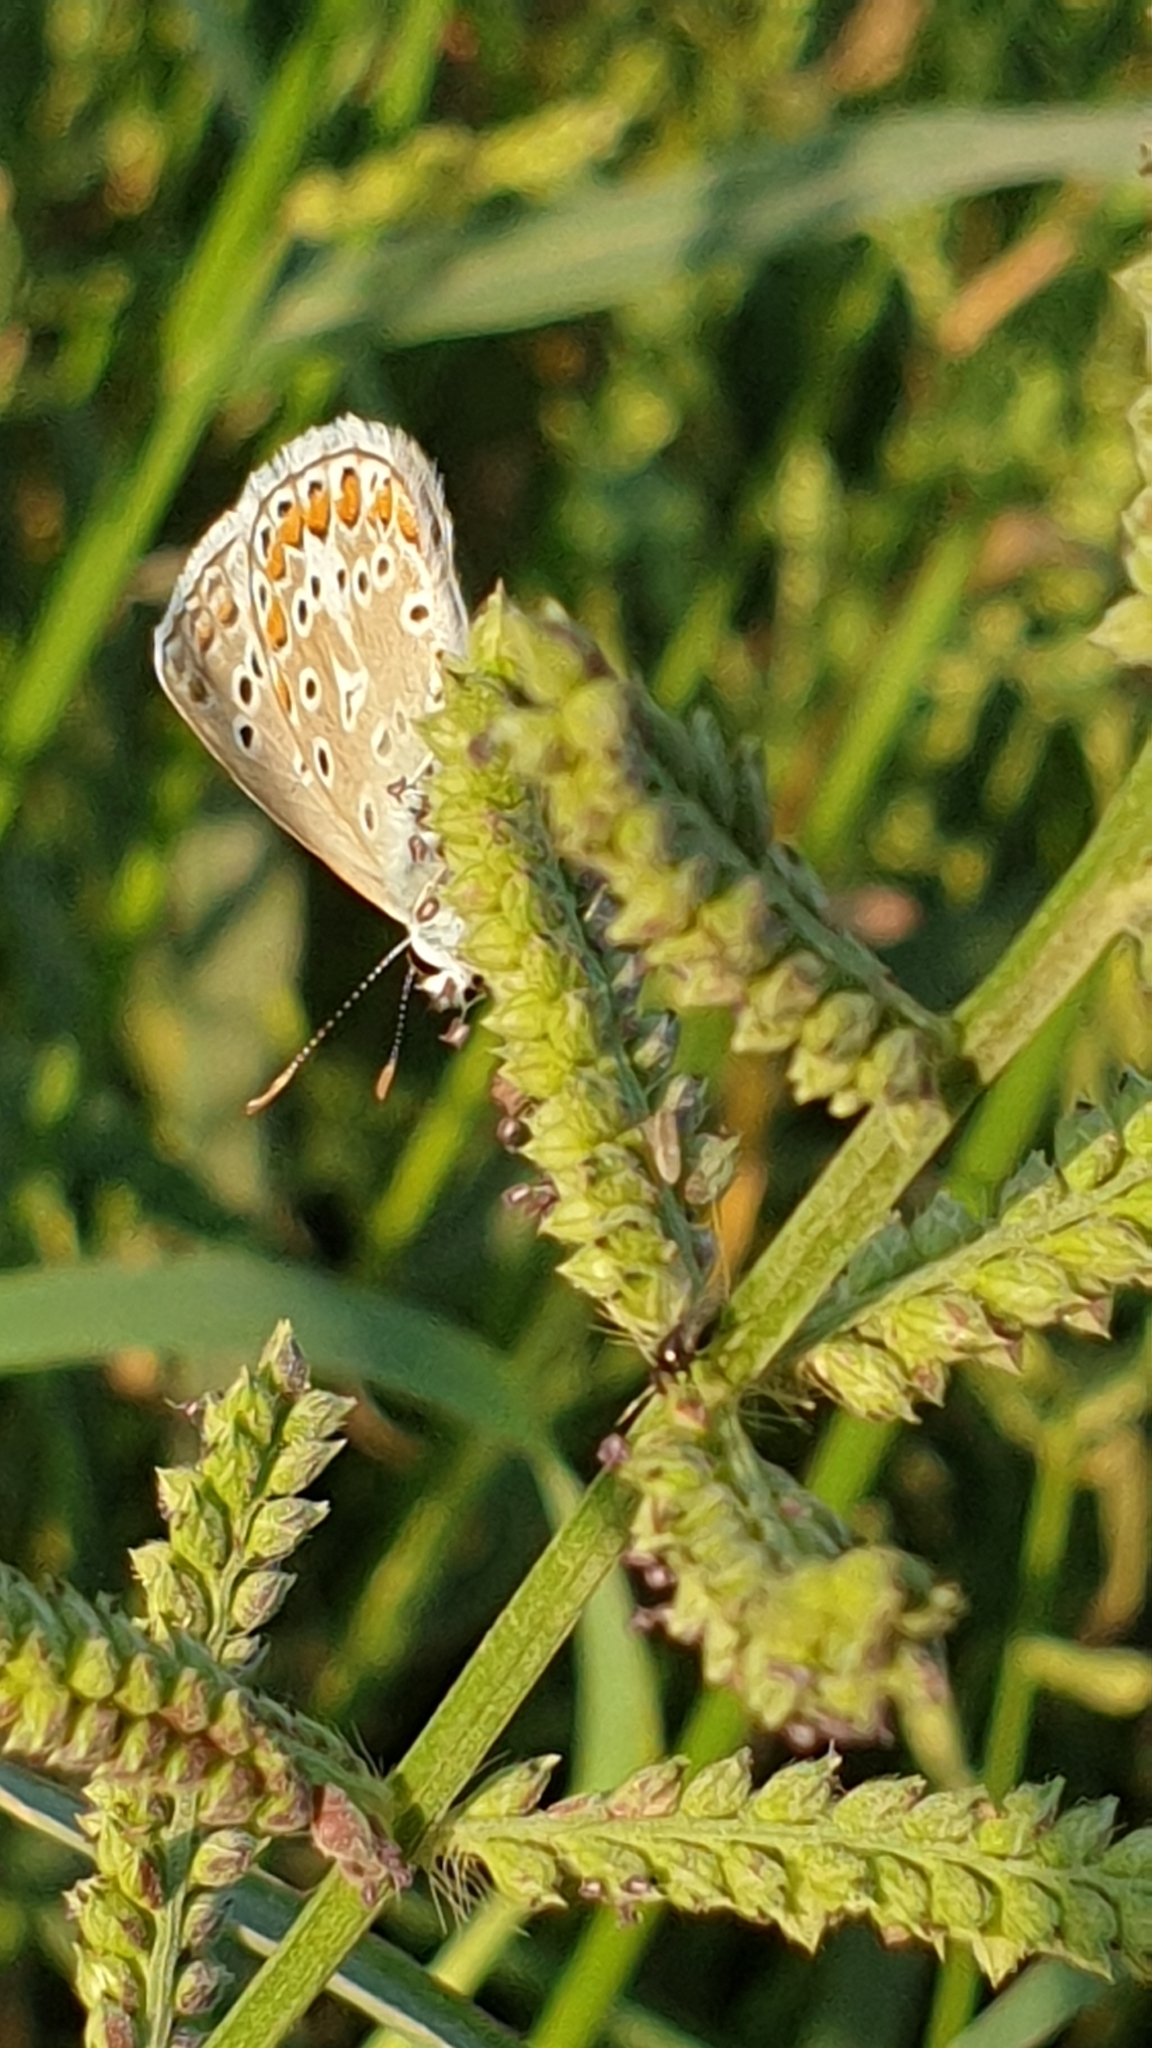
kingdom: Animalia
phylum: Arthropoda
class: Insecta
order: Lepidoptera
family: Lycaenidae
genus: Polyommatus
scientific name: Polyommatus icarus
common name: Common blue
